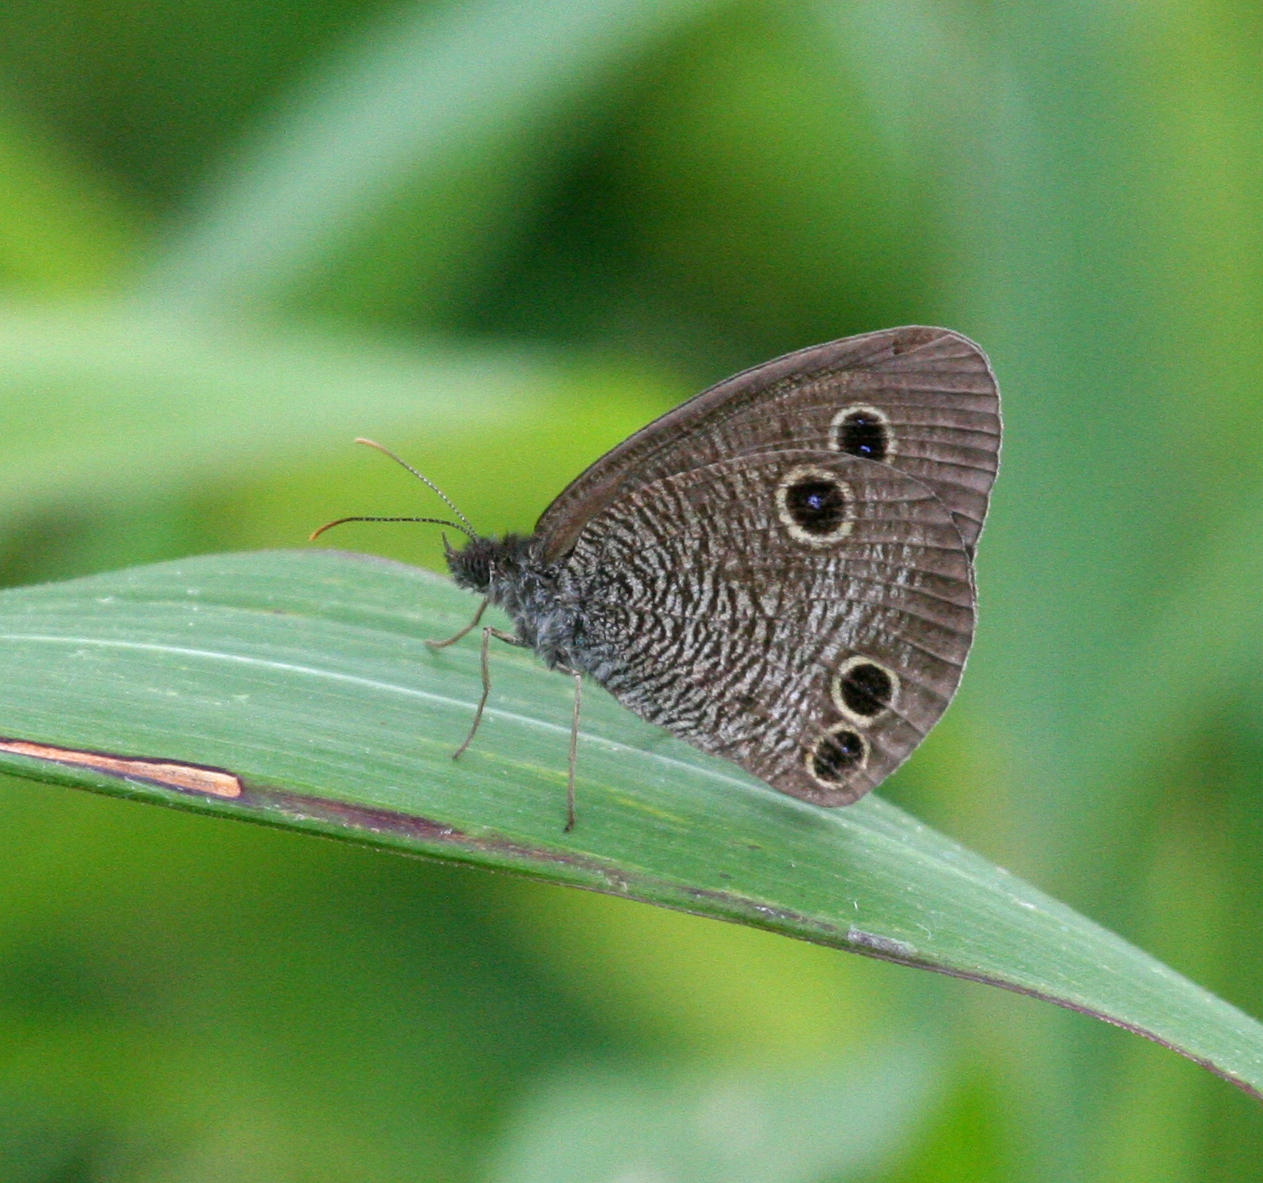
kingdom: Animalia
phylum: Arthropoda
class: Insecta
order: Lepidoptera
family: Nymphalidae
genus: Ypthima
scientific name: Ypthima motschulskyi
